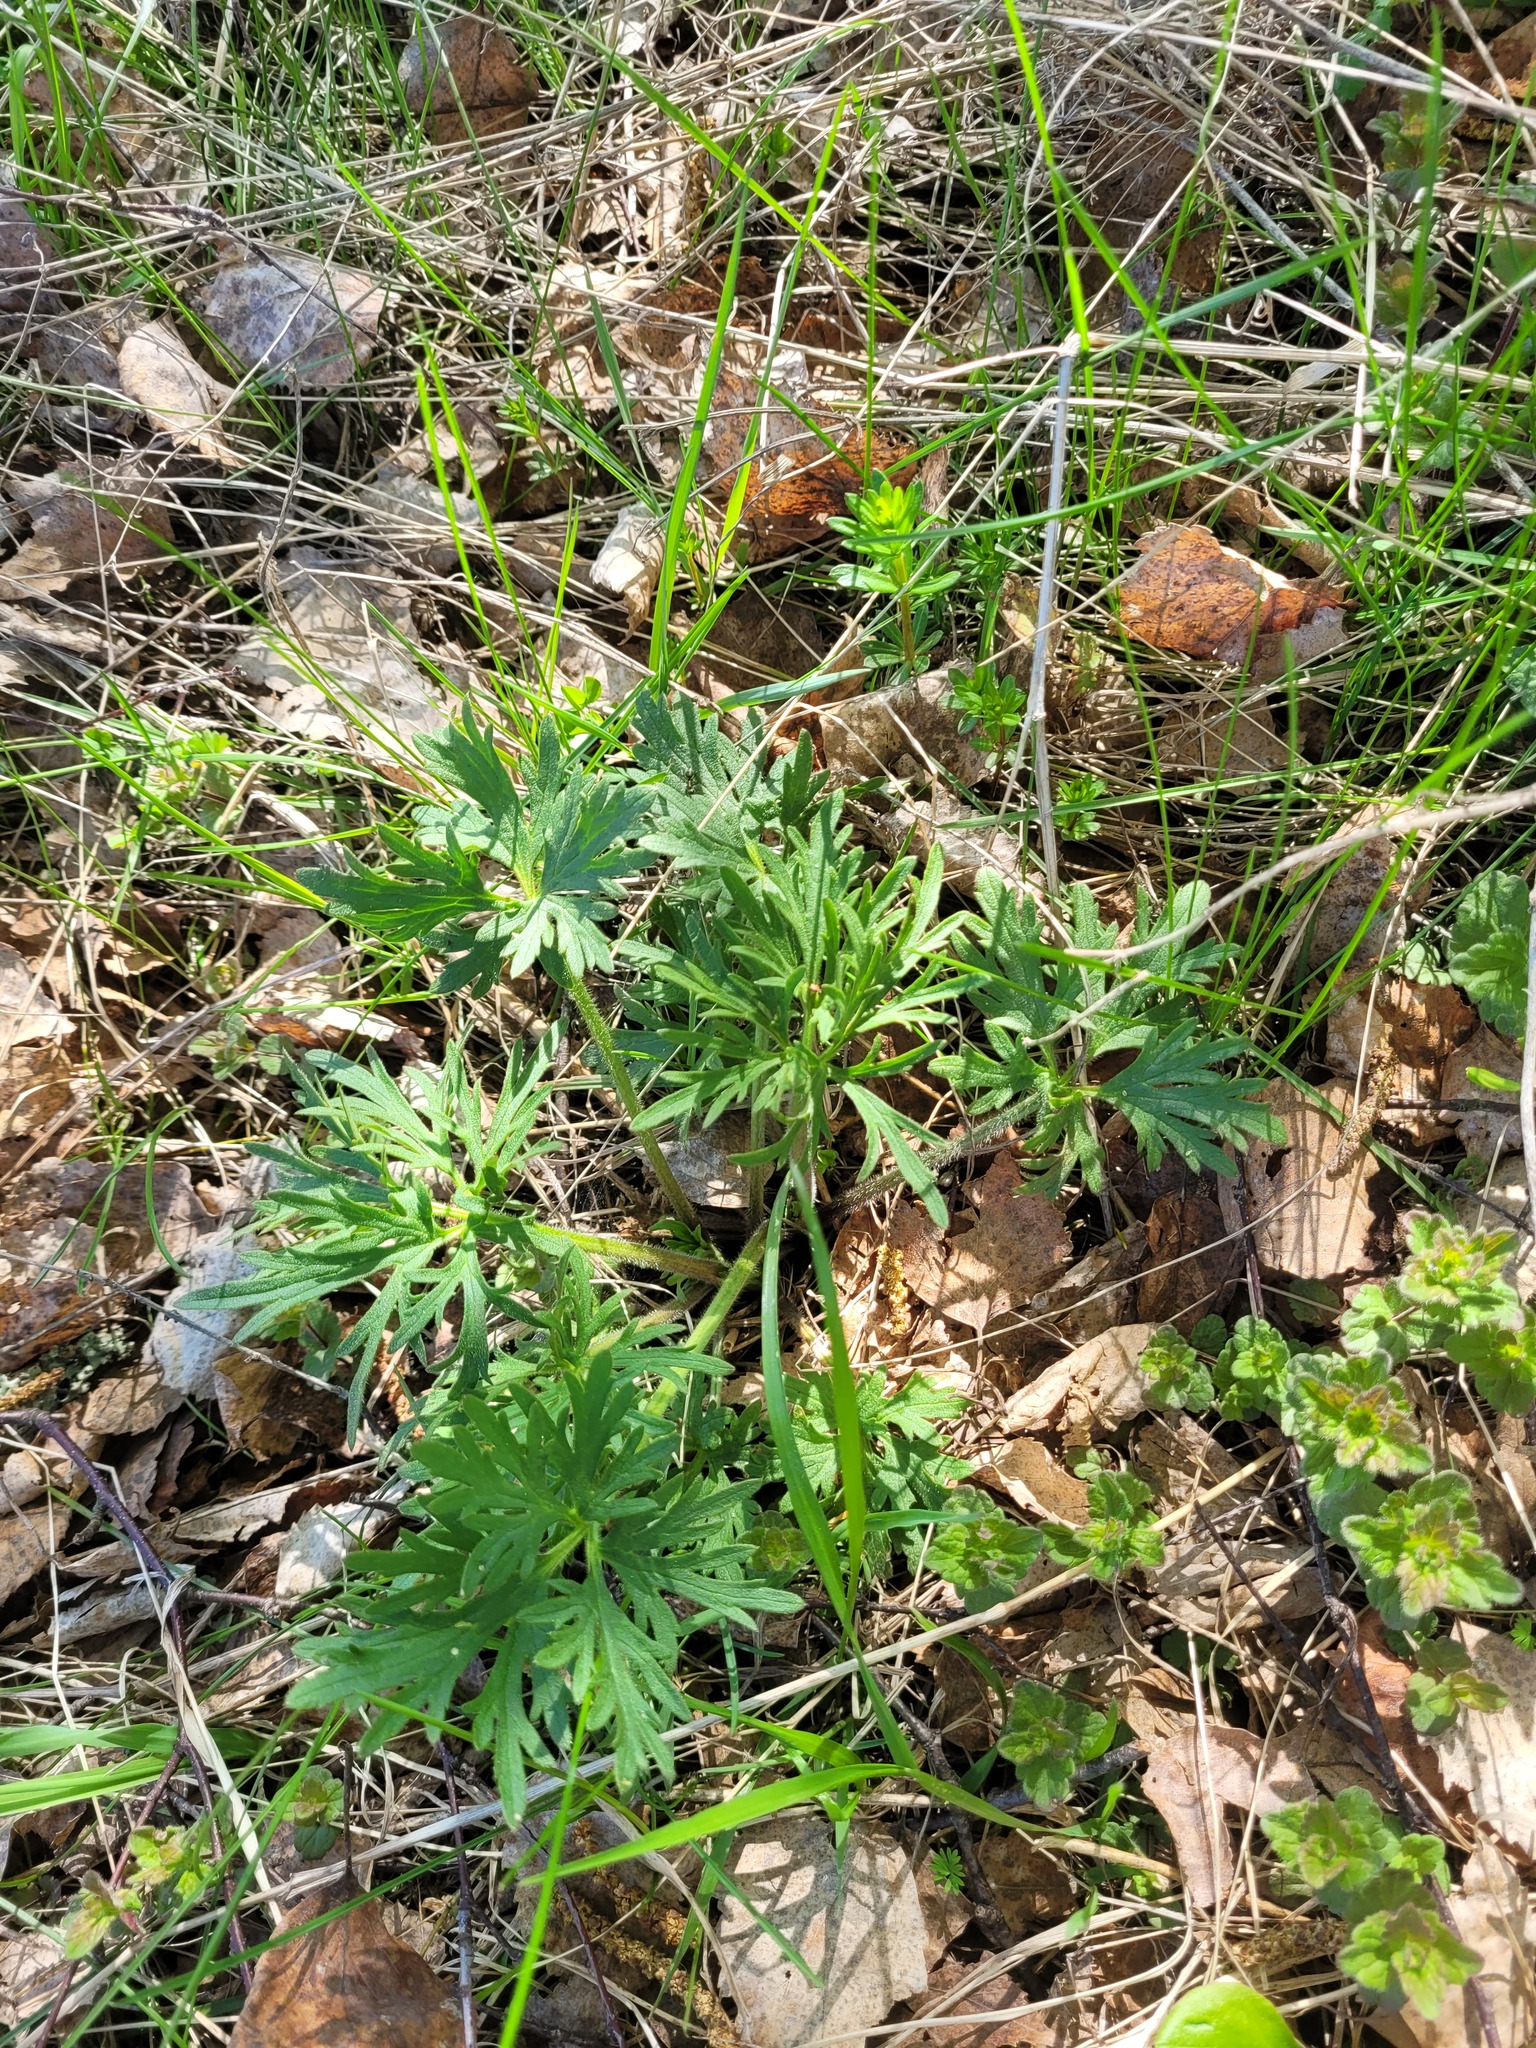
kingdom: Plantae
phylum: Tracheophyta
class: Magnoliopsida
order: Ranunculales
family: Ranunculaceae
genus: Ranunculus
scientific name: Ranunculus polyanthemos
